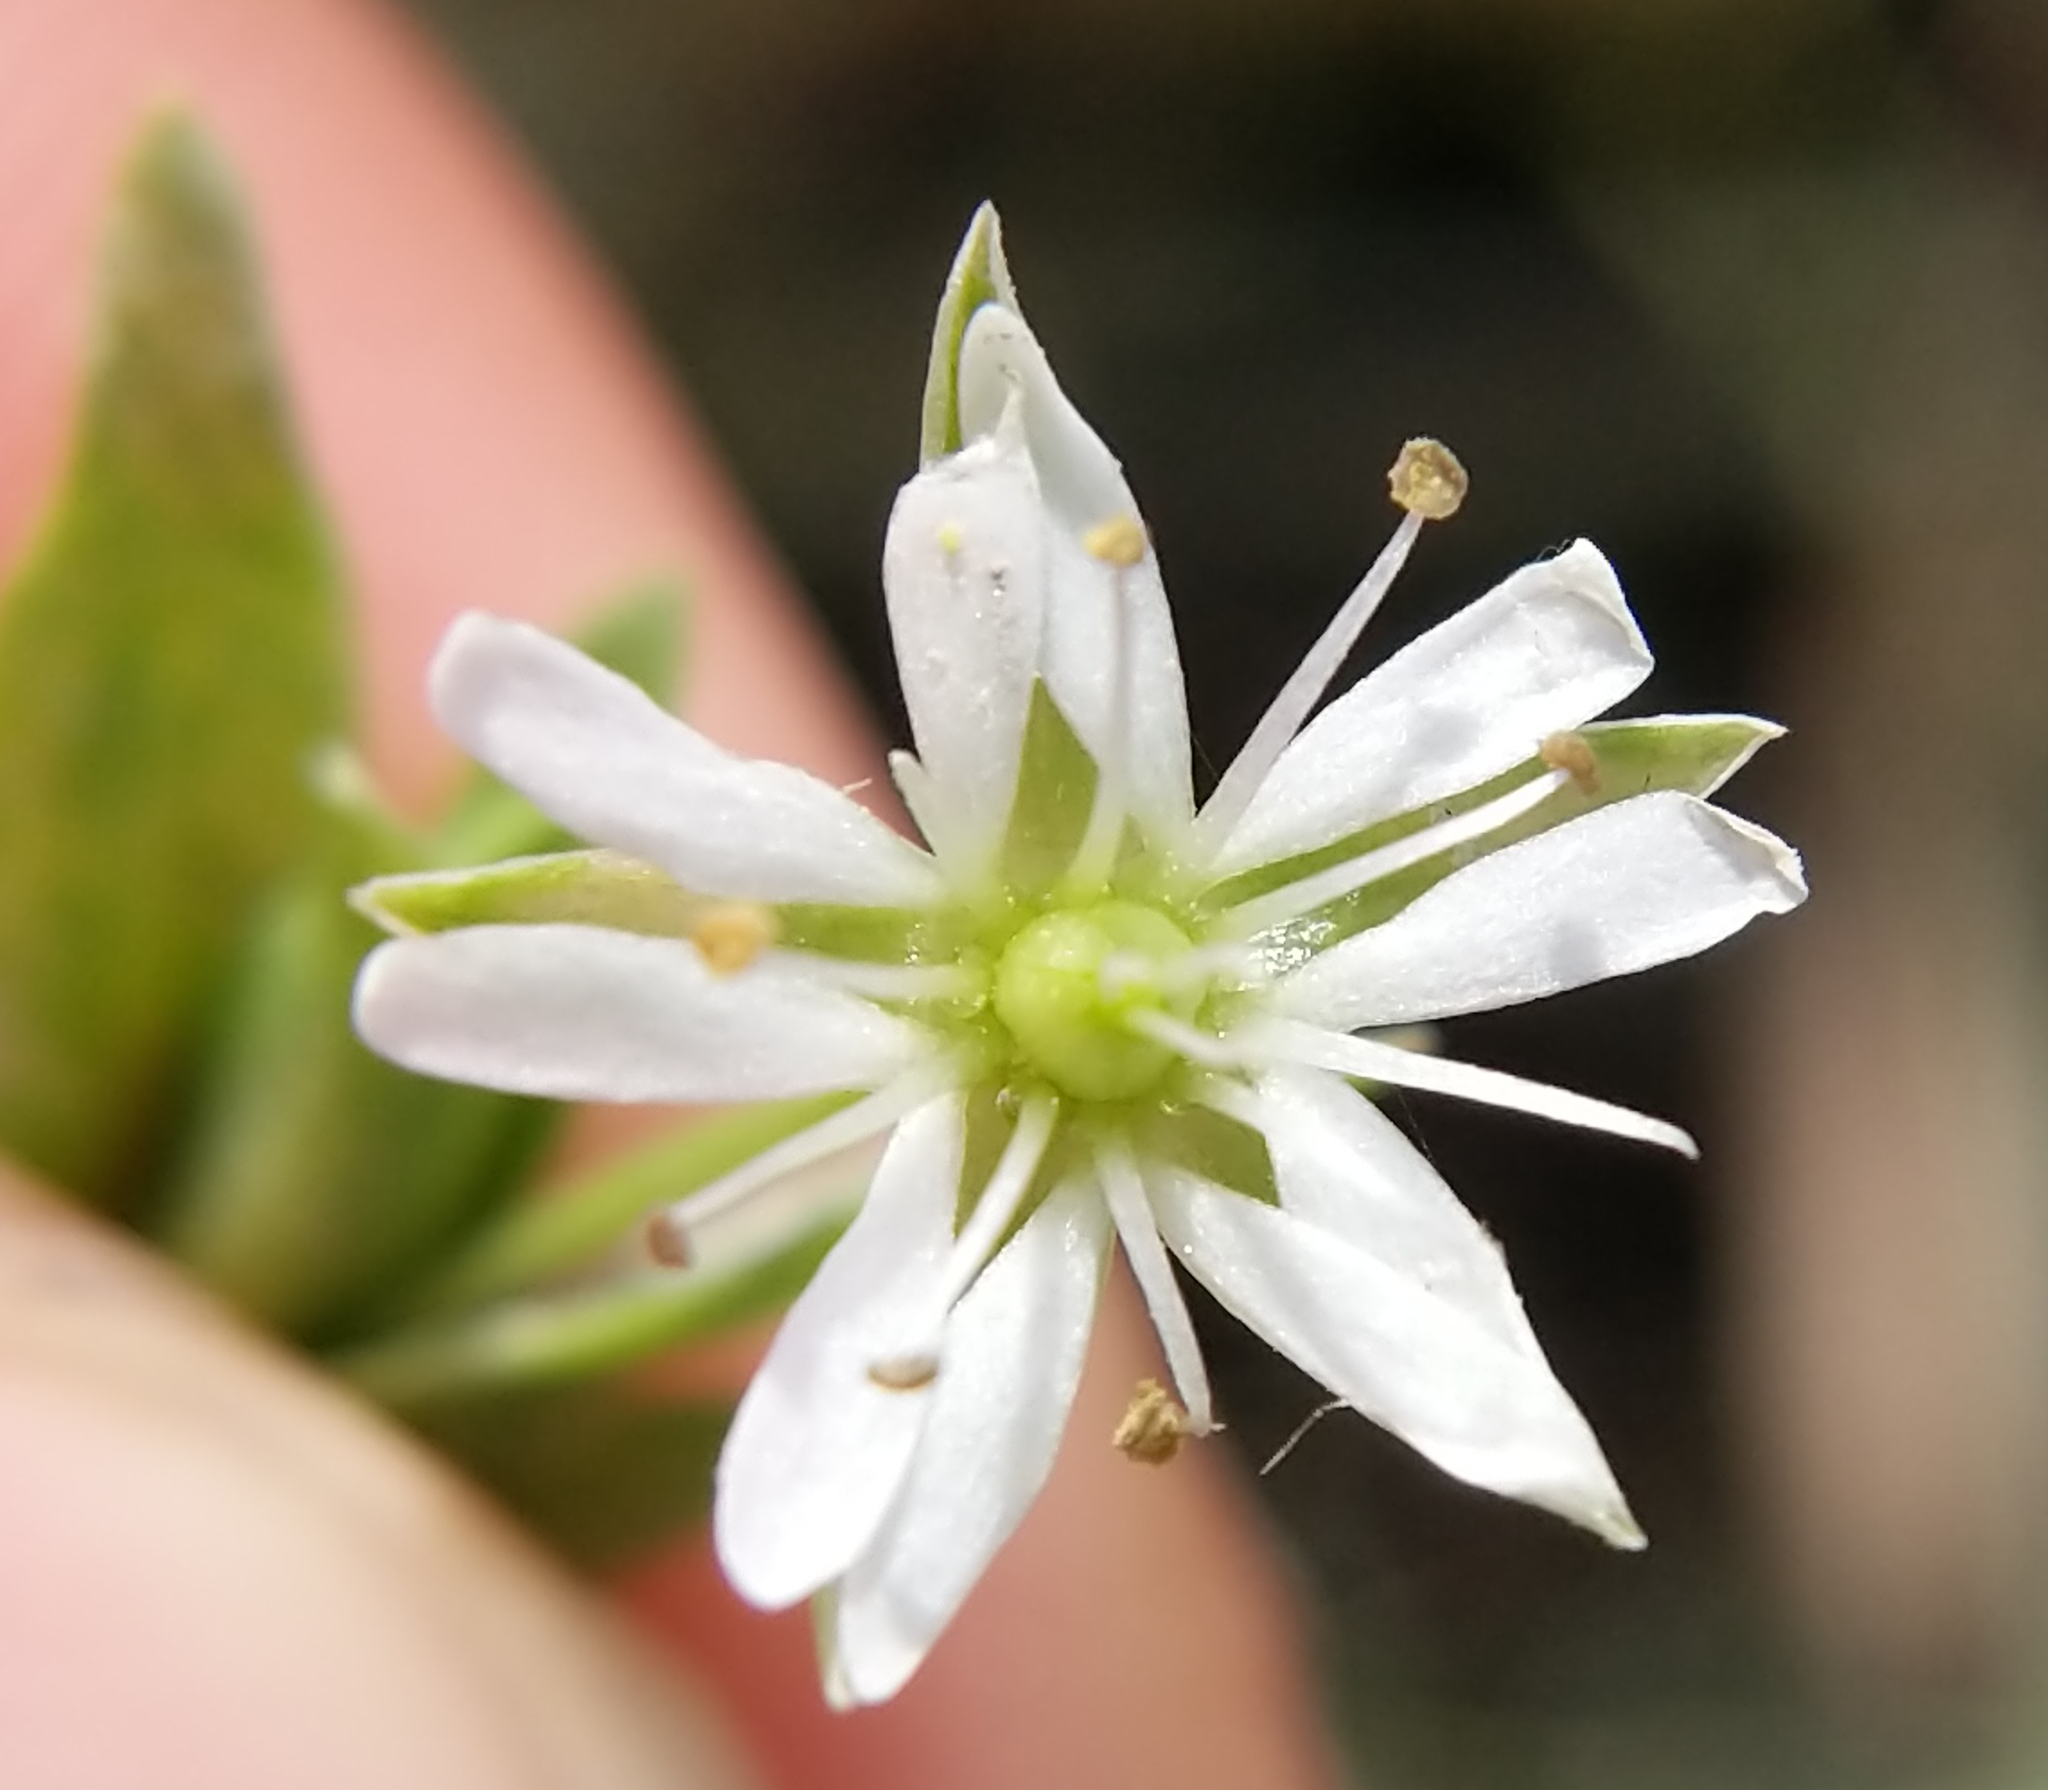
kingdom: Plantae
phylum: Tracheophyta
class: Magnoliopsida
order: Caryophyllales
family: Caryophyllaceae
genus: Stellaria
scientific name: Stellaria humifusa
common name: Creeping starwort
